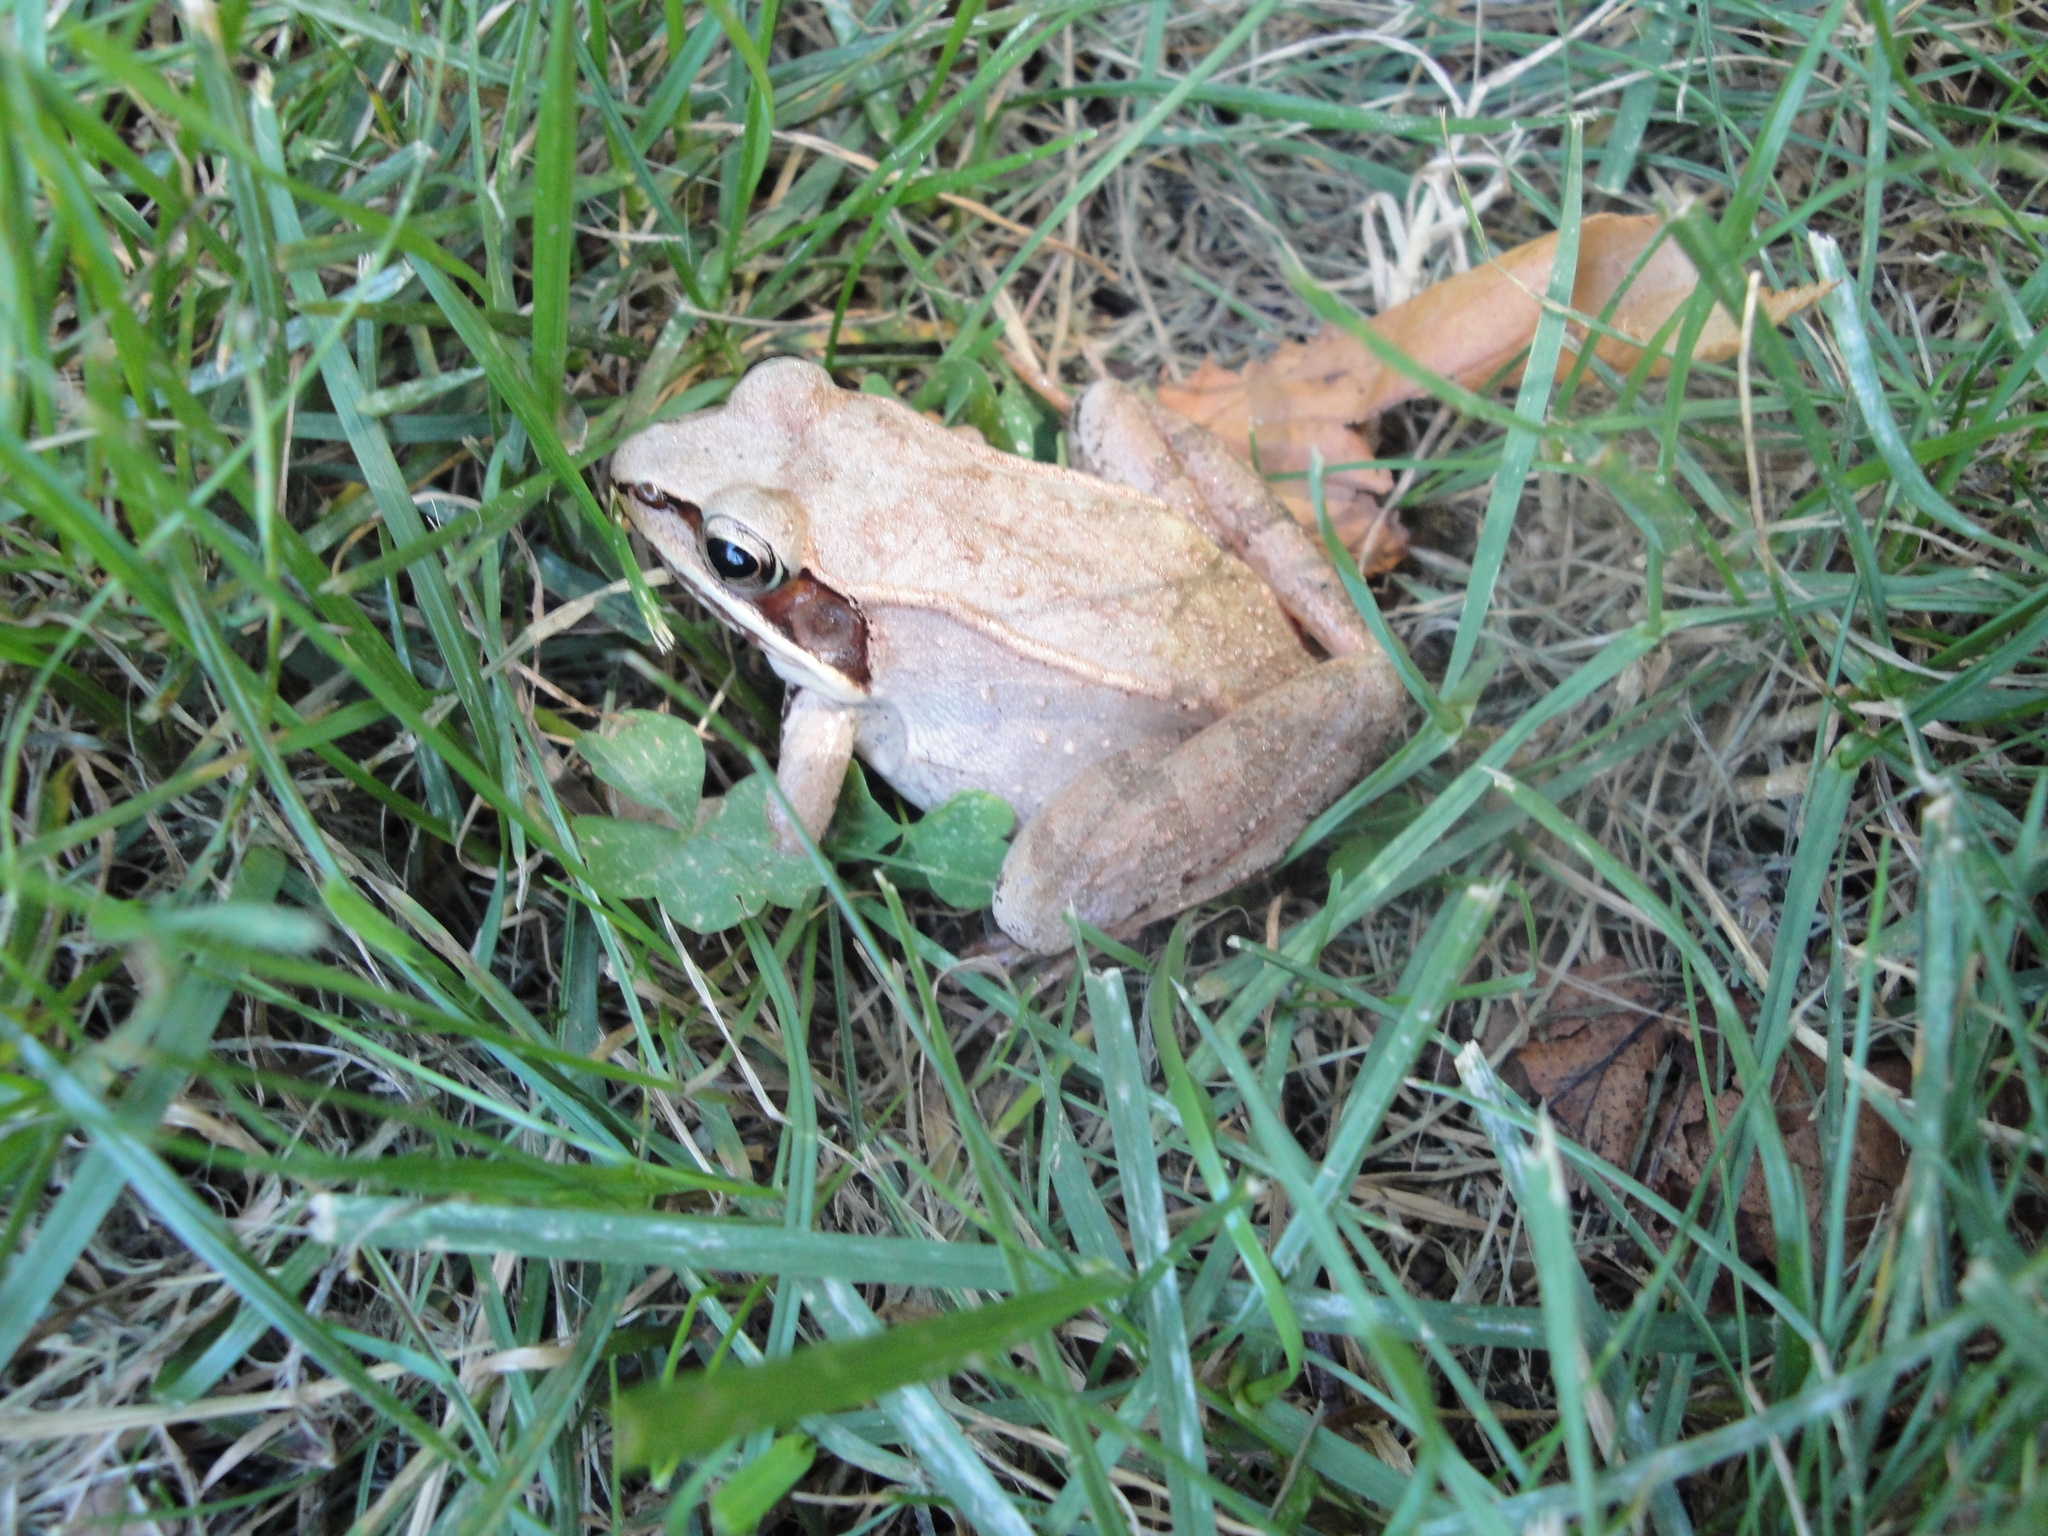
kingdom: Animalia
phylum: Chordata
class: Amphibia
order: Anura
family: Ranidae
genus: Lithobates
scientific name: Lithobates sylvaticus
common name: Wood frog
